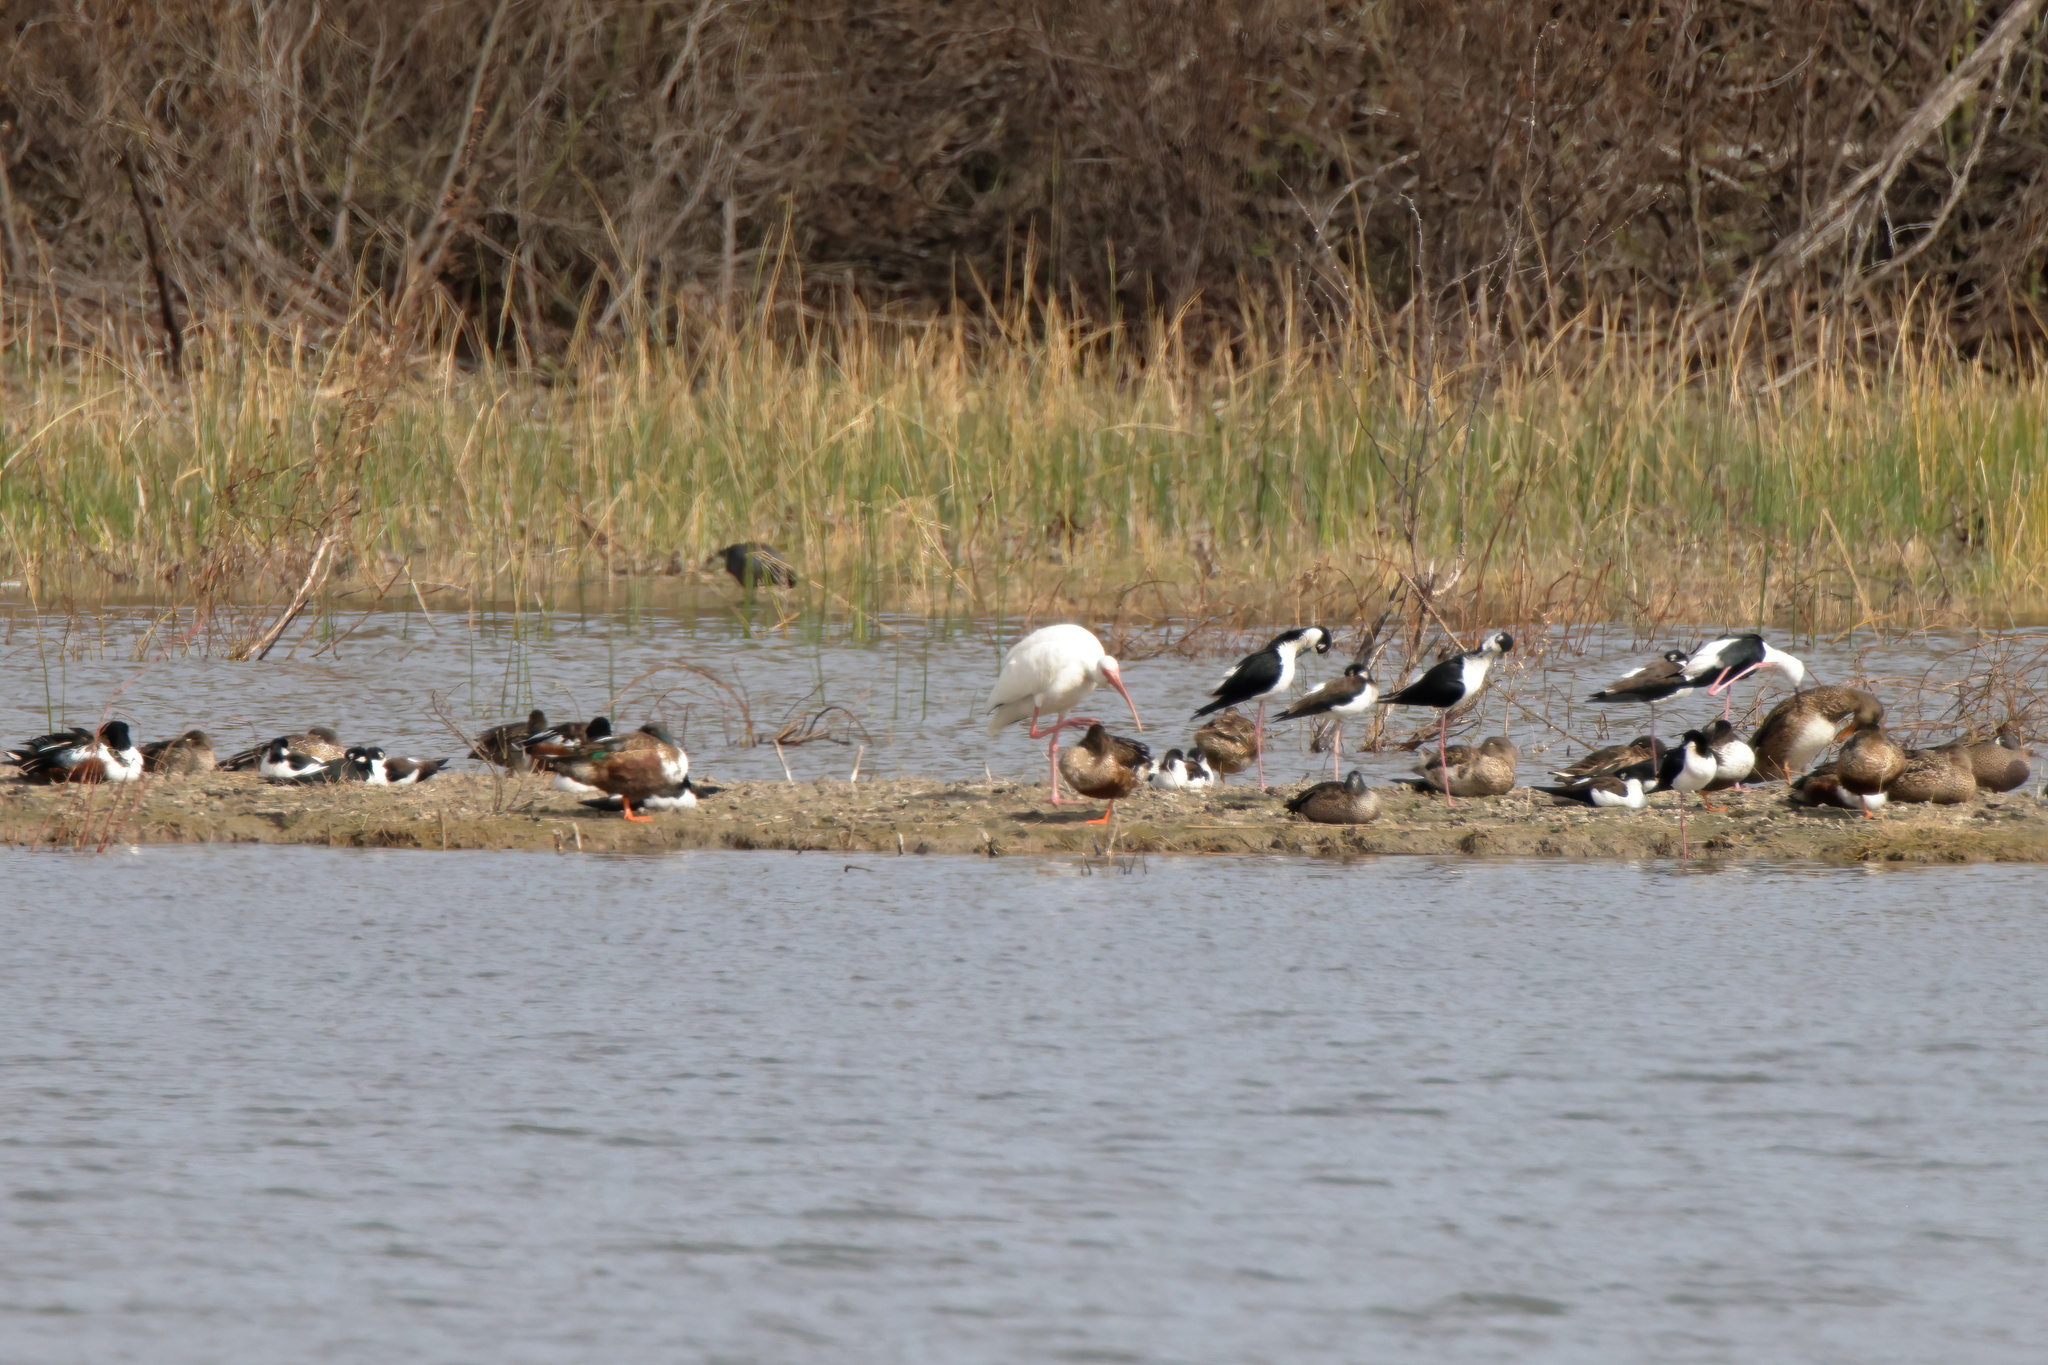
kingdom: Animalia
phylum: Chordata
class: Aves
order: Pelecaniformes
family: Threskiornithidae
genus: Eudocimus
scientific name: Eudocimus albus
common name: White ibis
